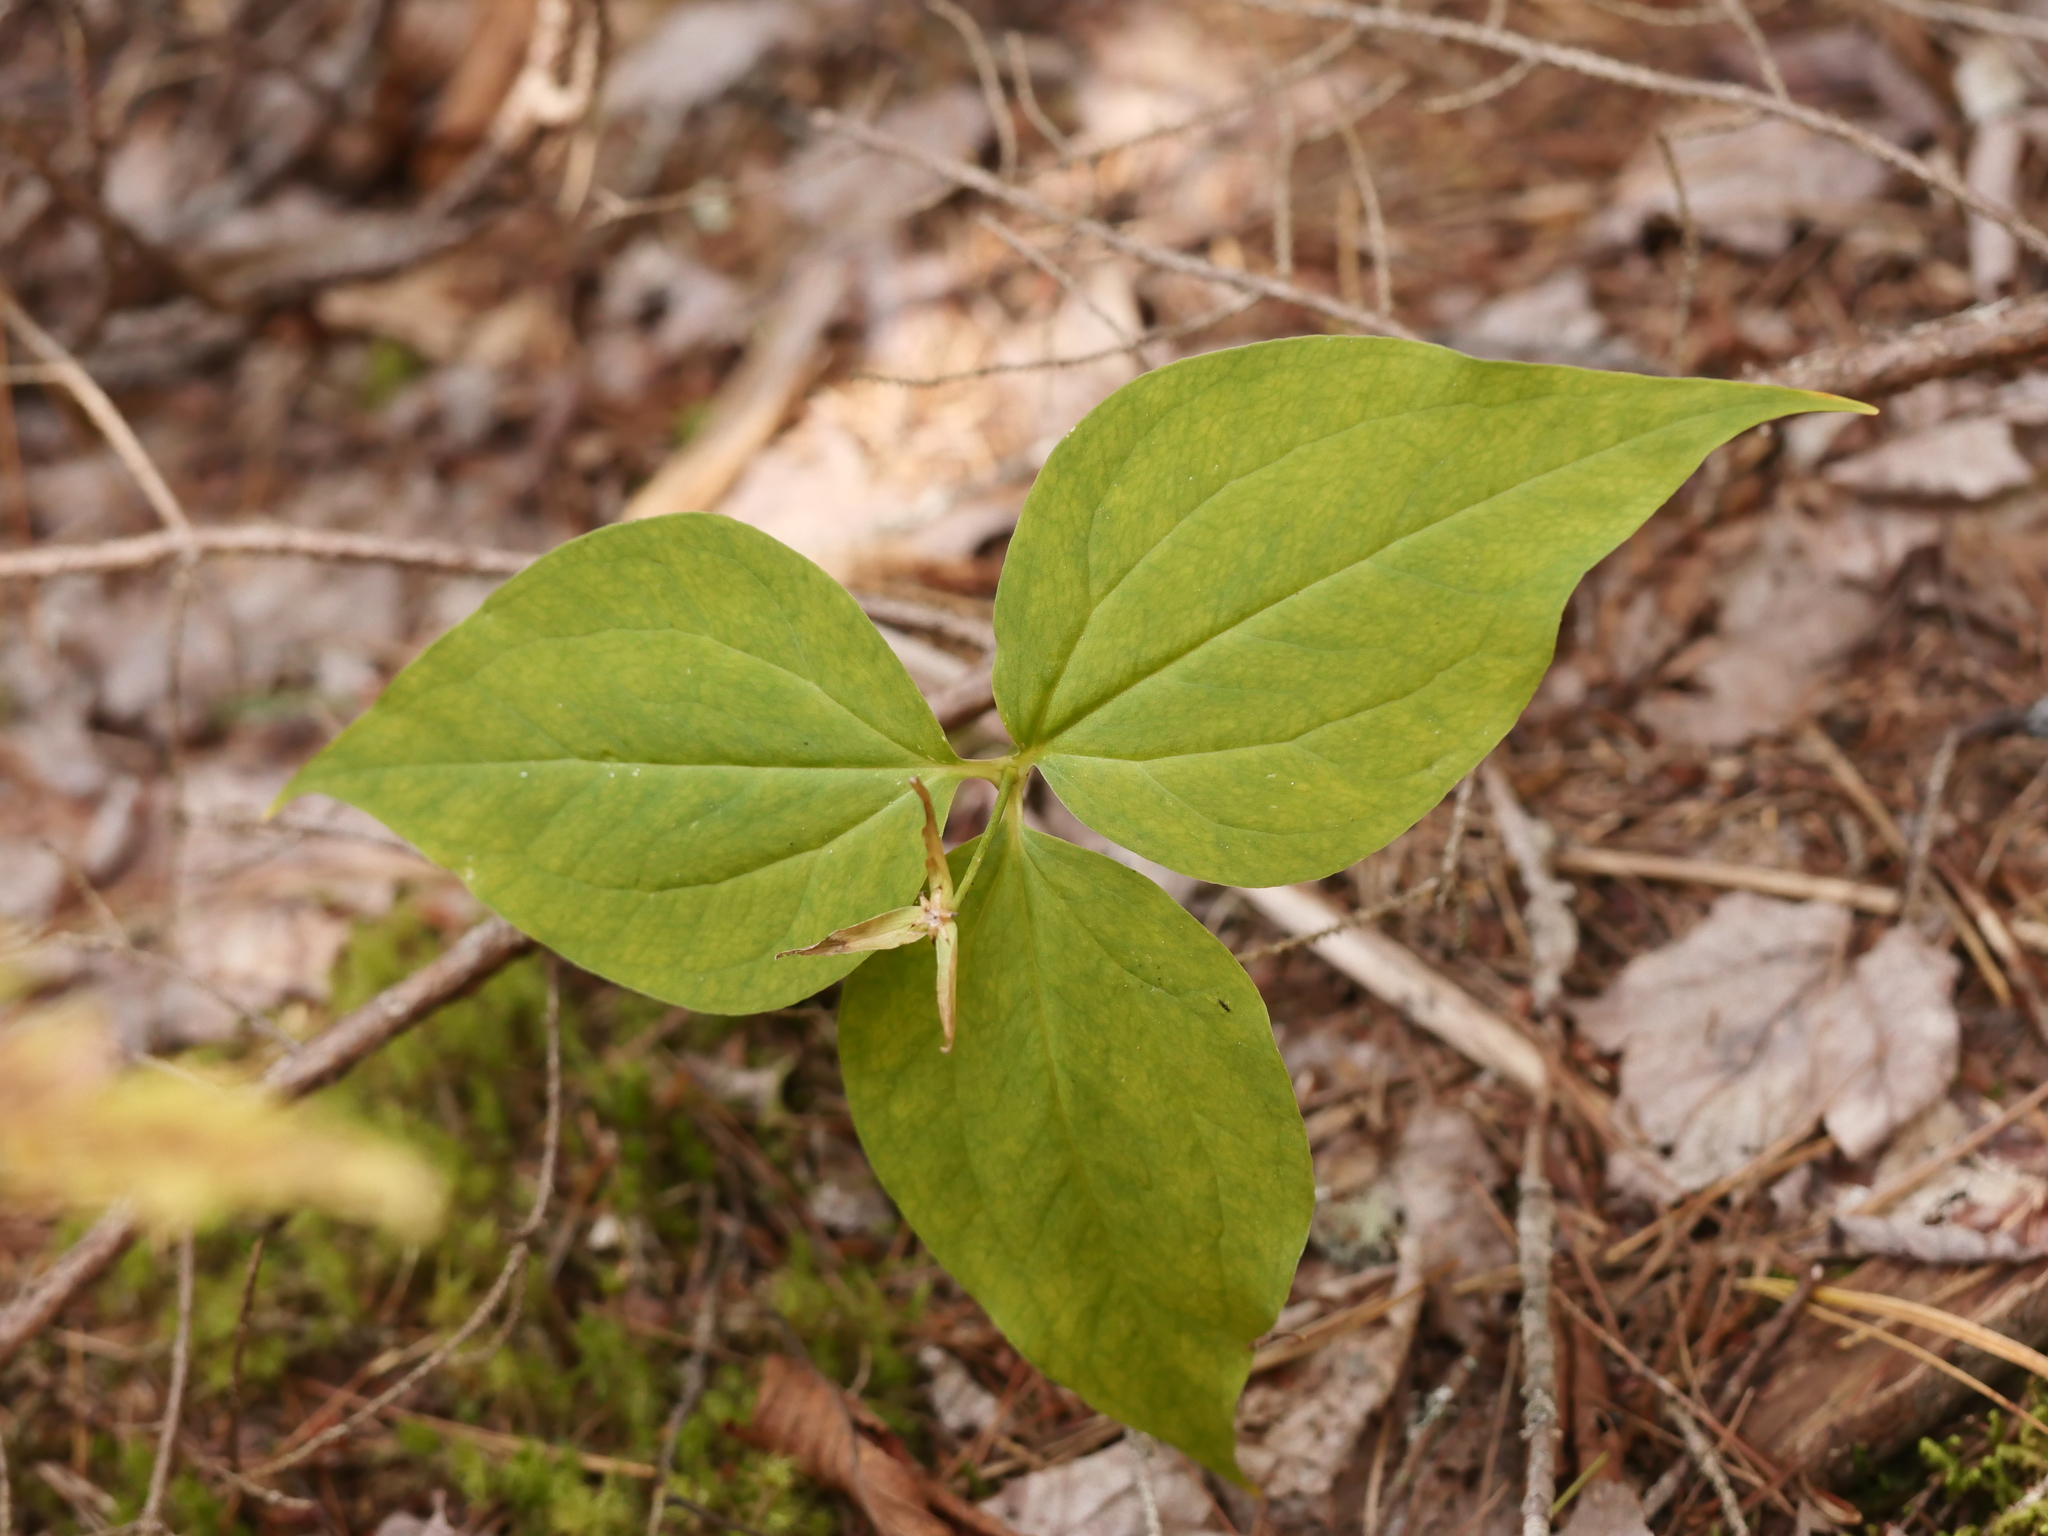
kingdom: Plantae
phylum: Tracheophyta
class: Liliopsida
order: Liliales
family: Melanthiaceae
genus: Trillium
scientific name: Trillium undulatum
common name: Paint trillium
